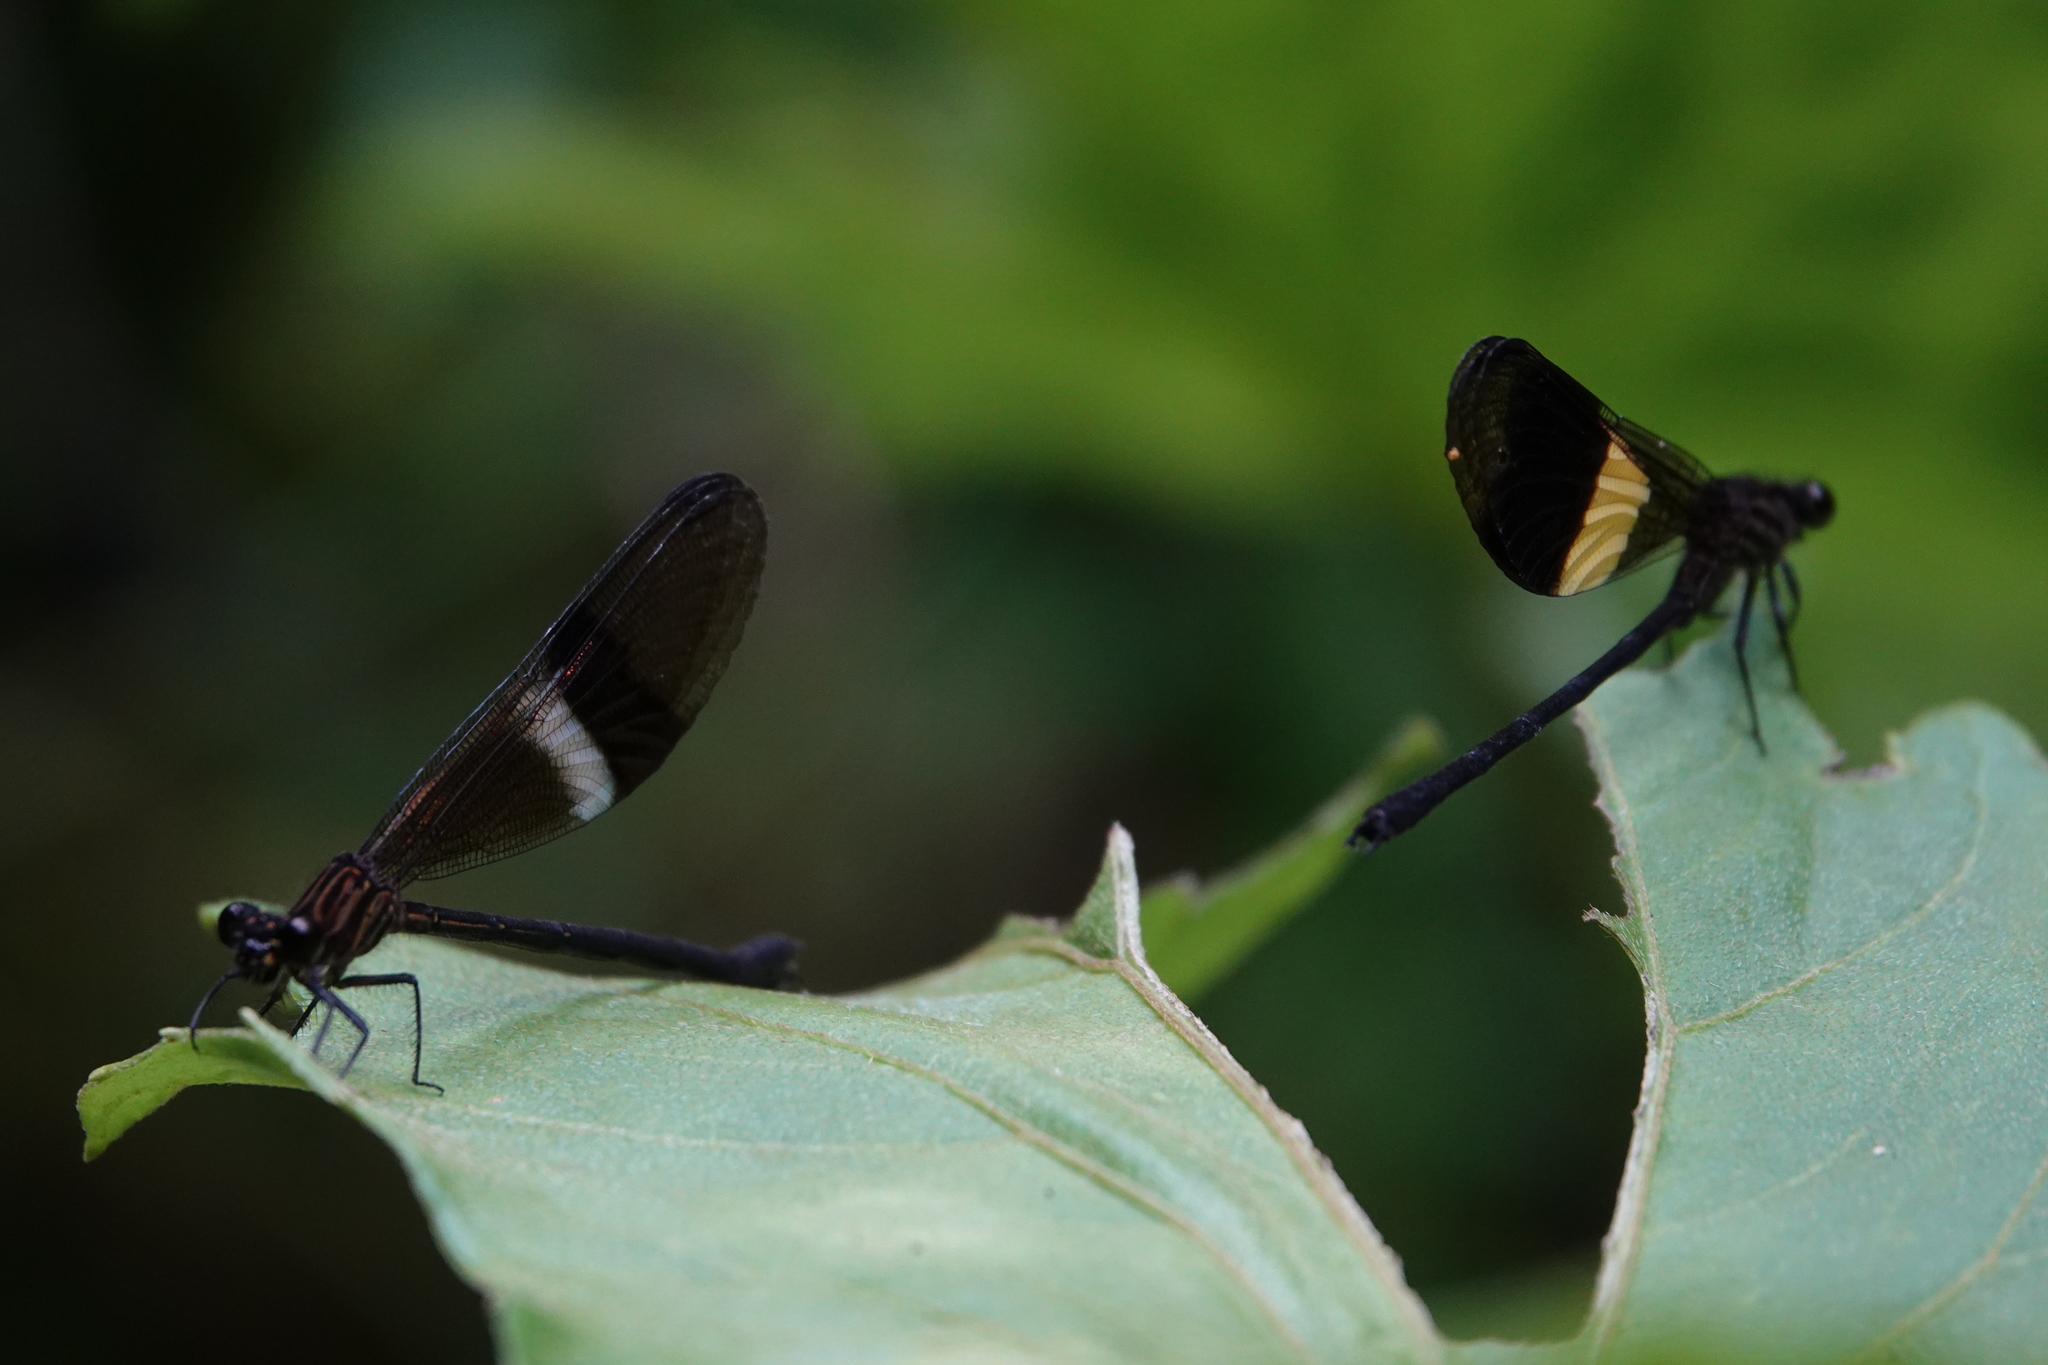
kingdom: Animalia
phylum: Arthropoda
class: Insecta
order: Odonata
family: Polythoridae
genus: Euthore
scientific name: Euthore fasciata
